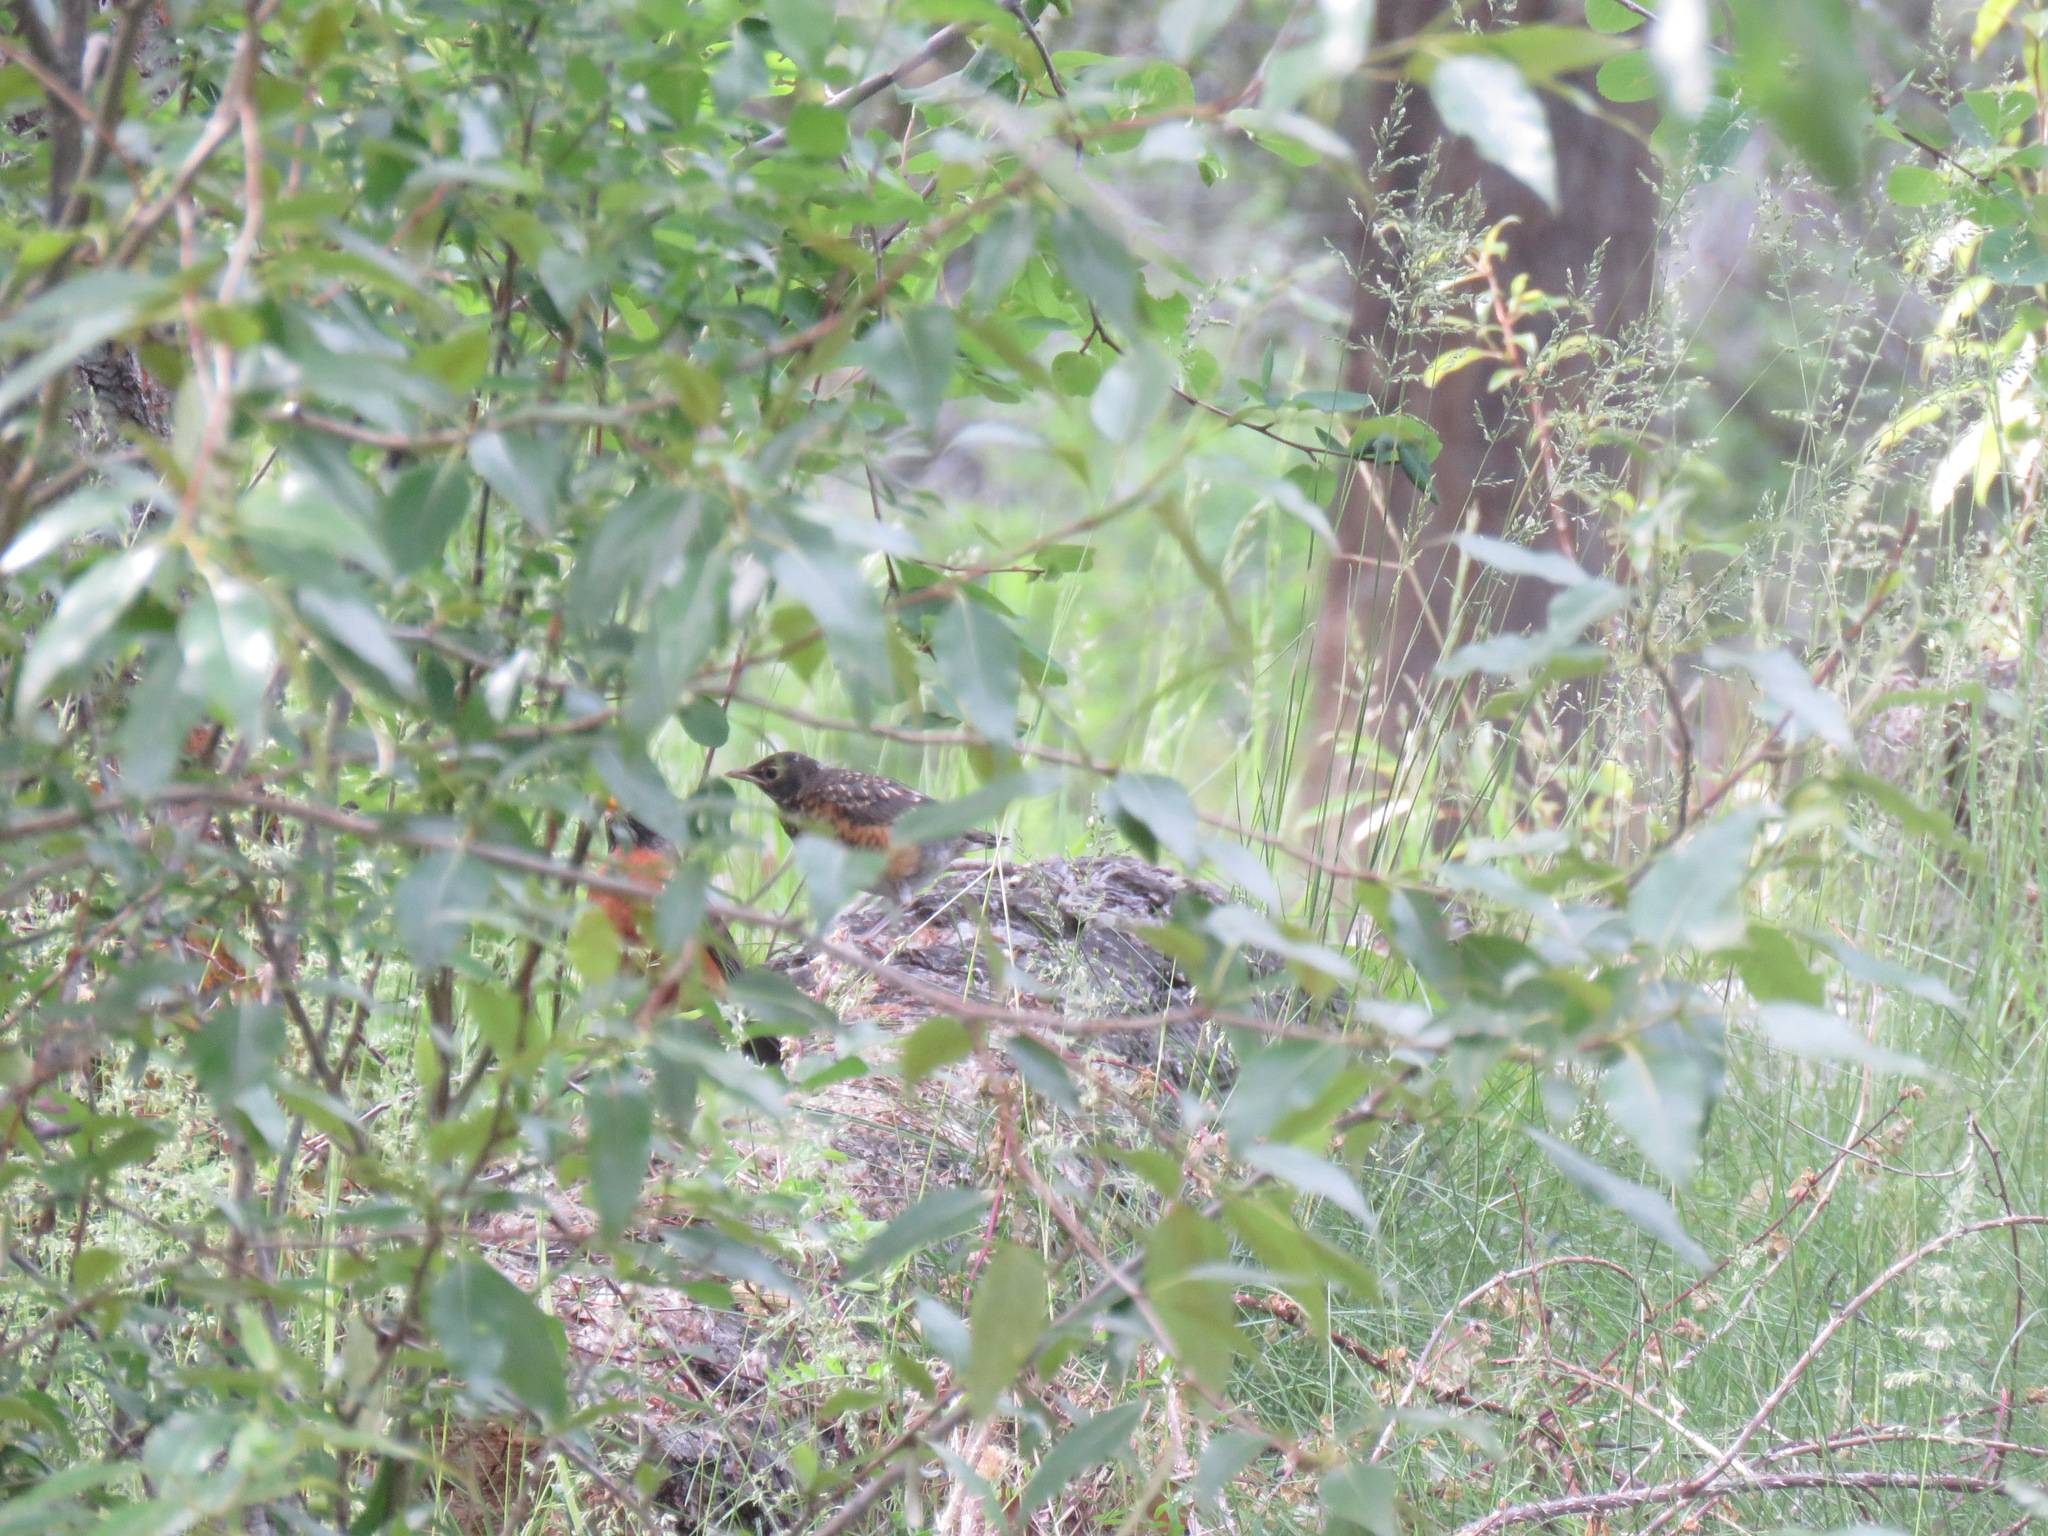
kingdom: Animalia
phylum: Chordata
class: Aves
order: Passeriformes
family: Turdidae
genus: Turdus
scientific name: Turdus migratorius
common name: American robin
